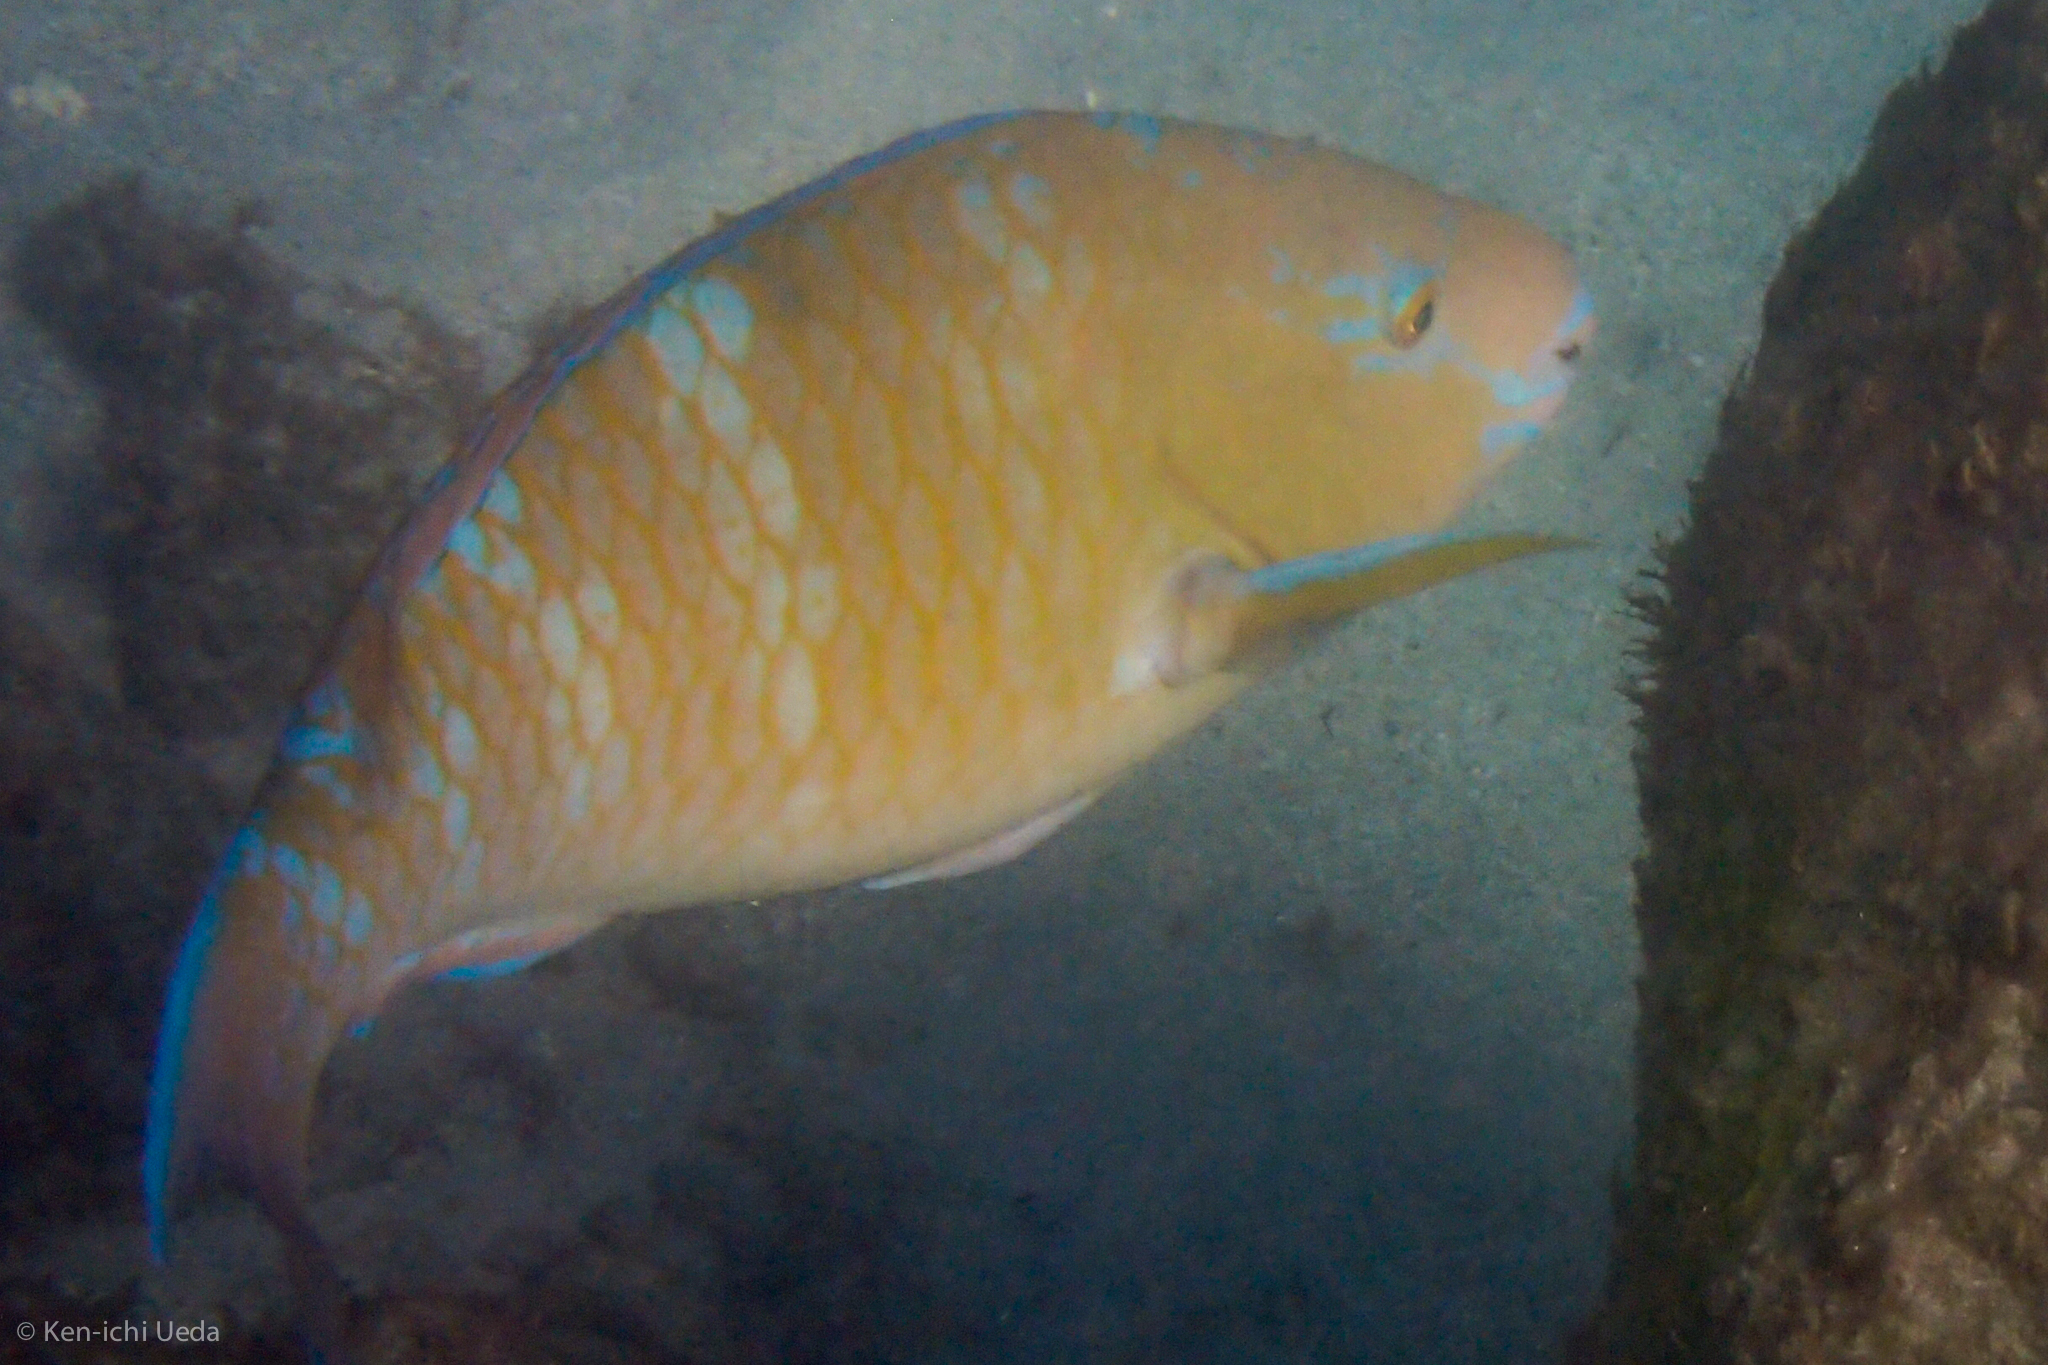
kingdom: Animalia
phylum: Chordata
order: Perciformes
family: Scaridae
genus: Scarus
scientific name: Scarus ghobban
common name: Blue-barred parrotfish
